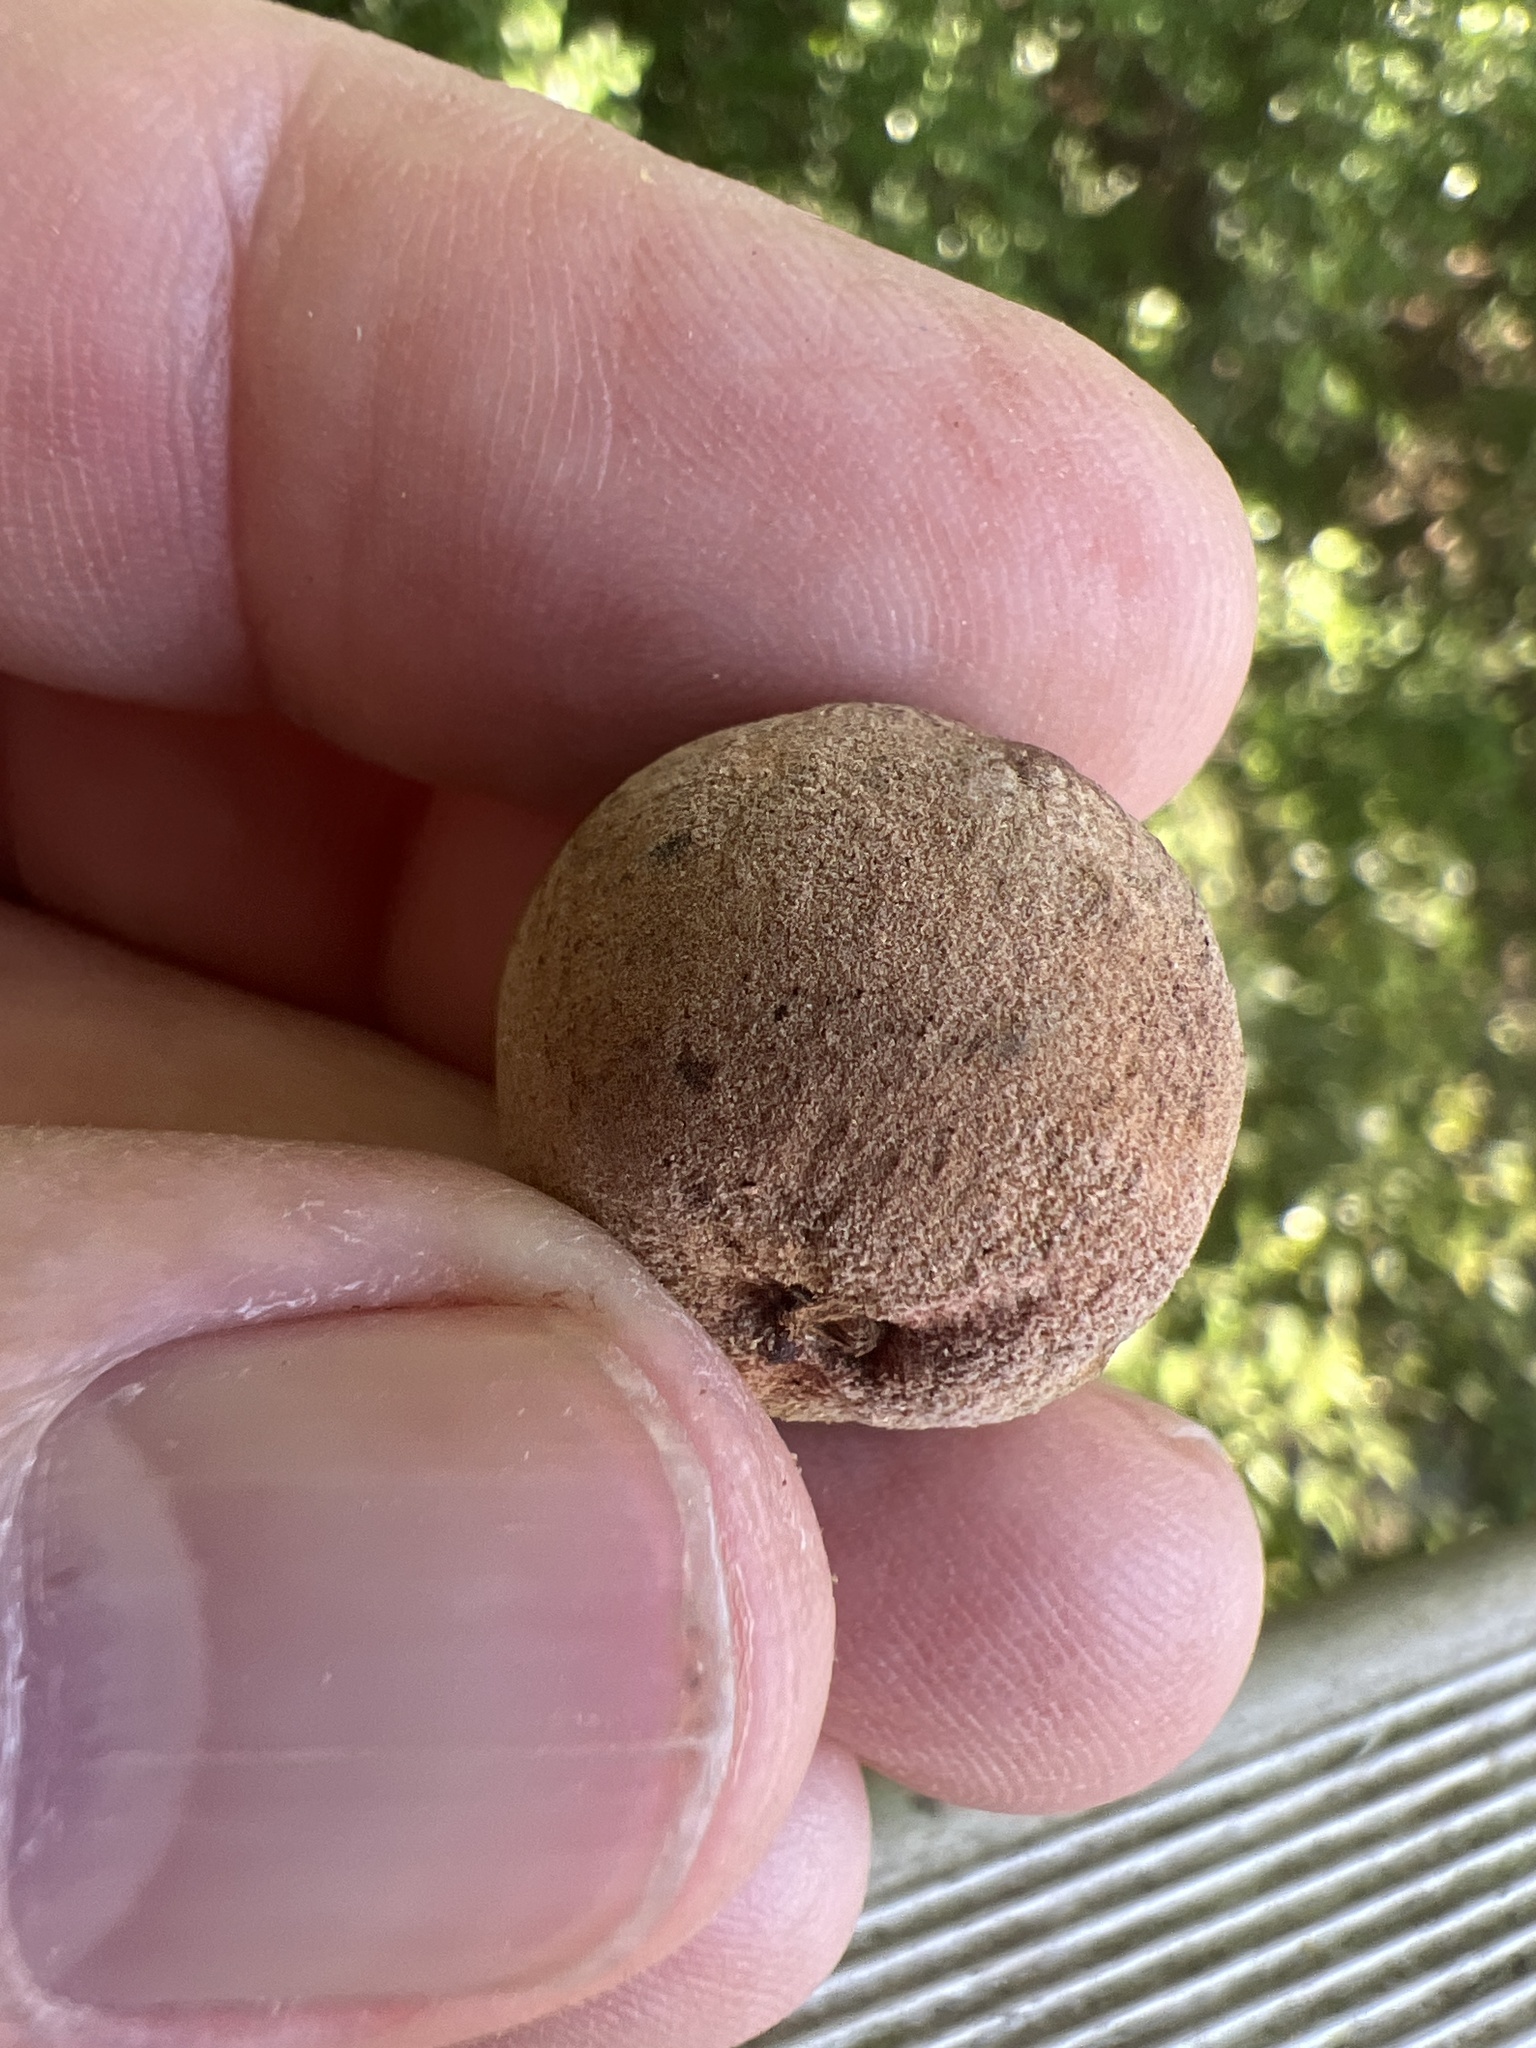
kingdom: Animalia
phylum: Arthropoda
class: Insecta
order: Hymenoptera
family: Cynipidae
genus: Disholcaspis
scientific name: Disholcaspis
